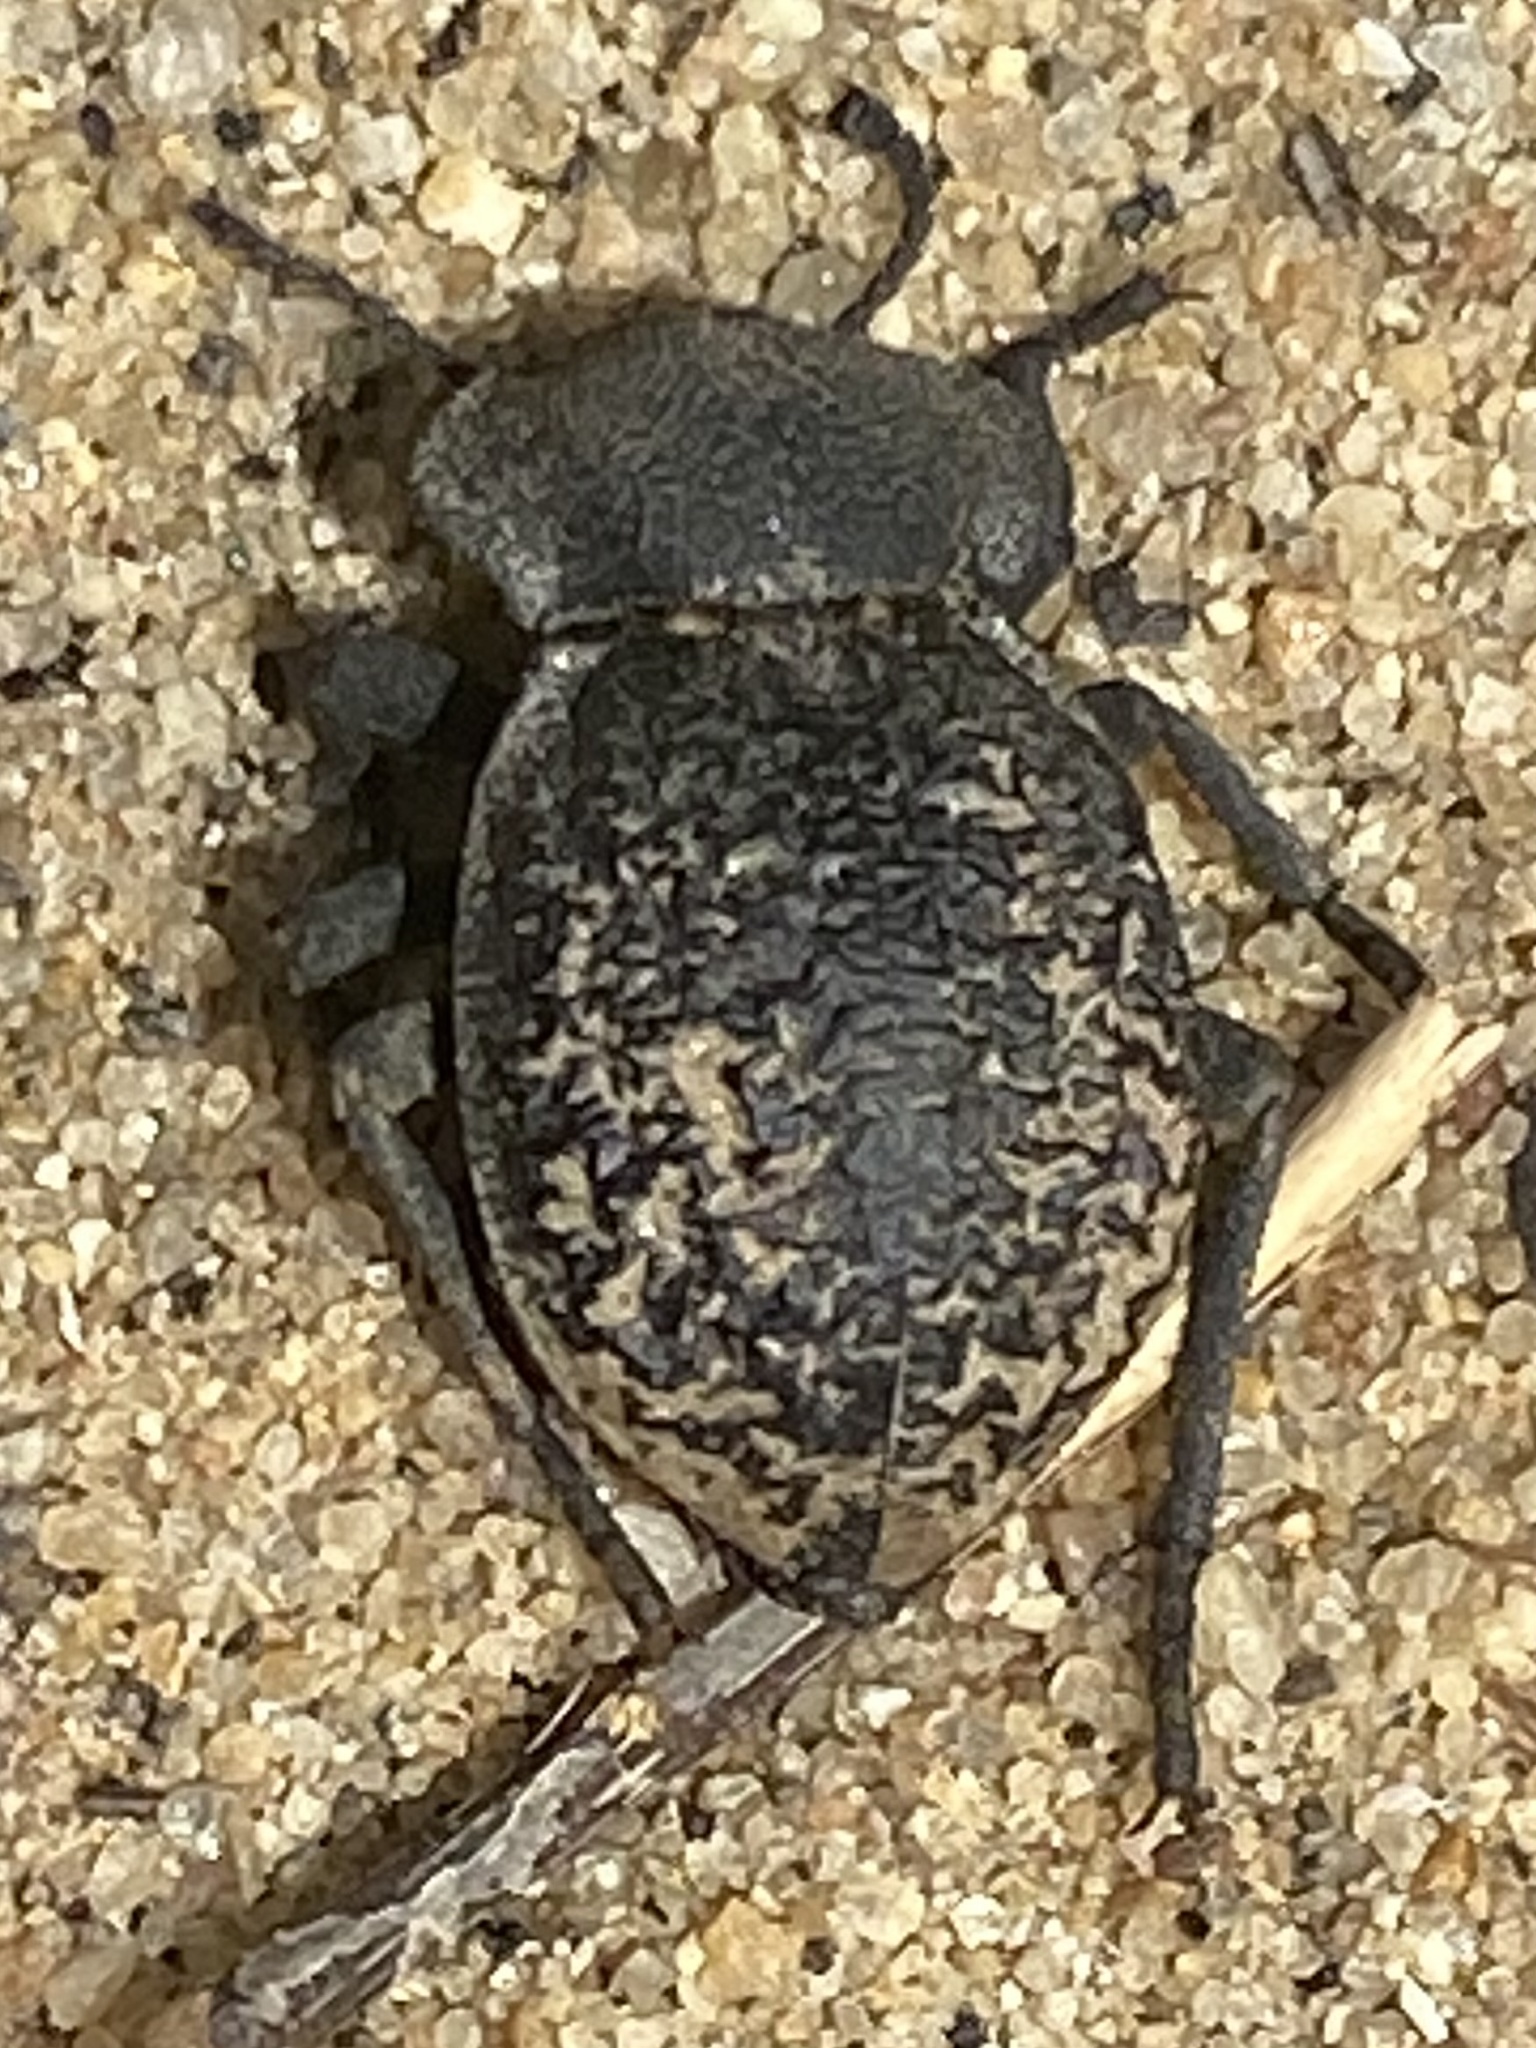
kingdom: Animalia
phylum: Arthropoda
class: Insecta
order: Coleoptera
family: Tenebrionidae
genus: Microschatia
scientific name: Microschatia inaequalis
